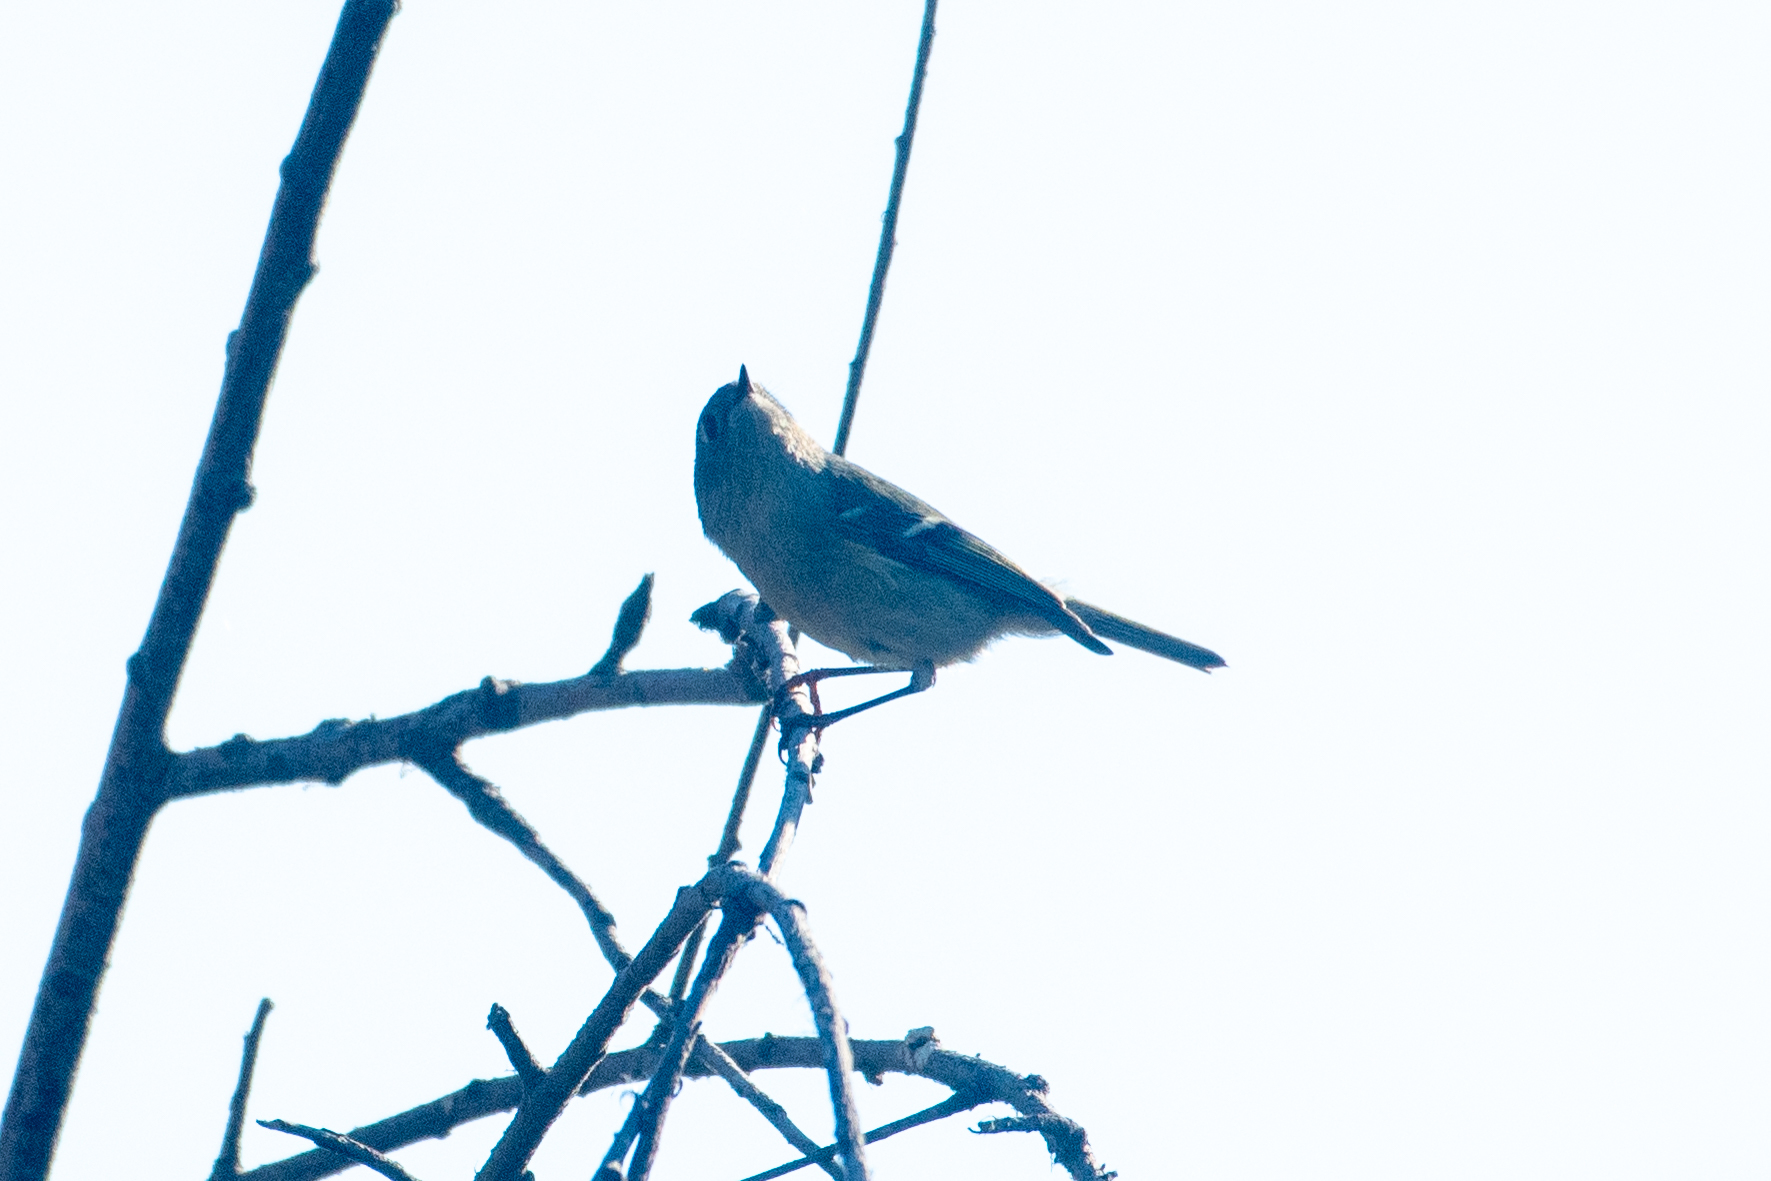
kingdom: Animalia
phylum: Chordata
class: Aves
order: Passeriformes
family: Regulidae
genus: Regulus
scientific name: Regulus calendula
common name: Ruby-crowned kinglet
